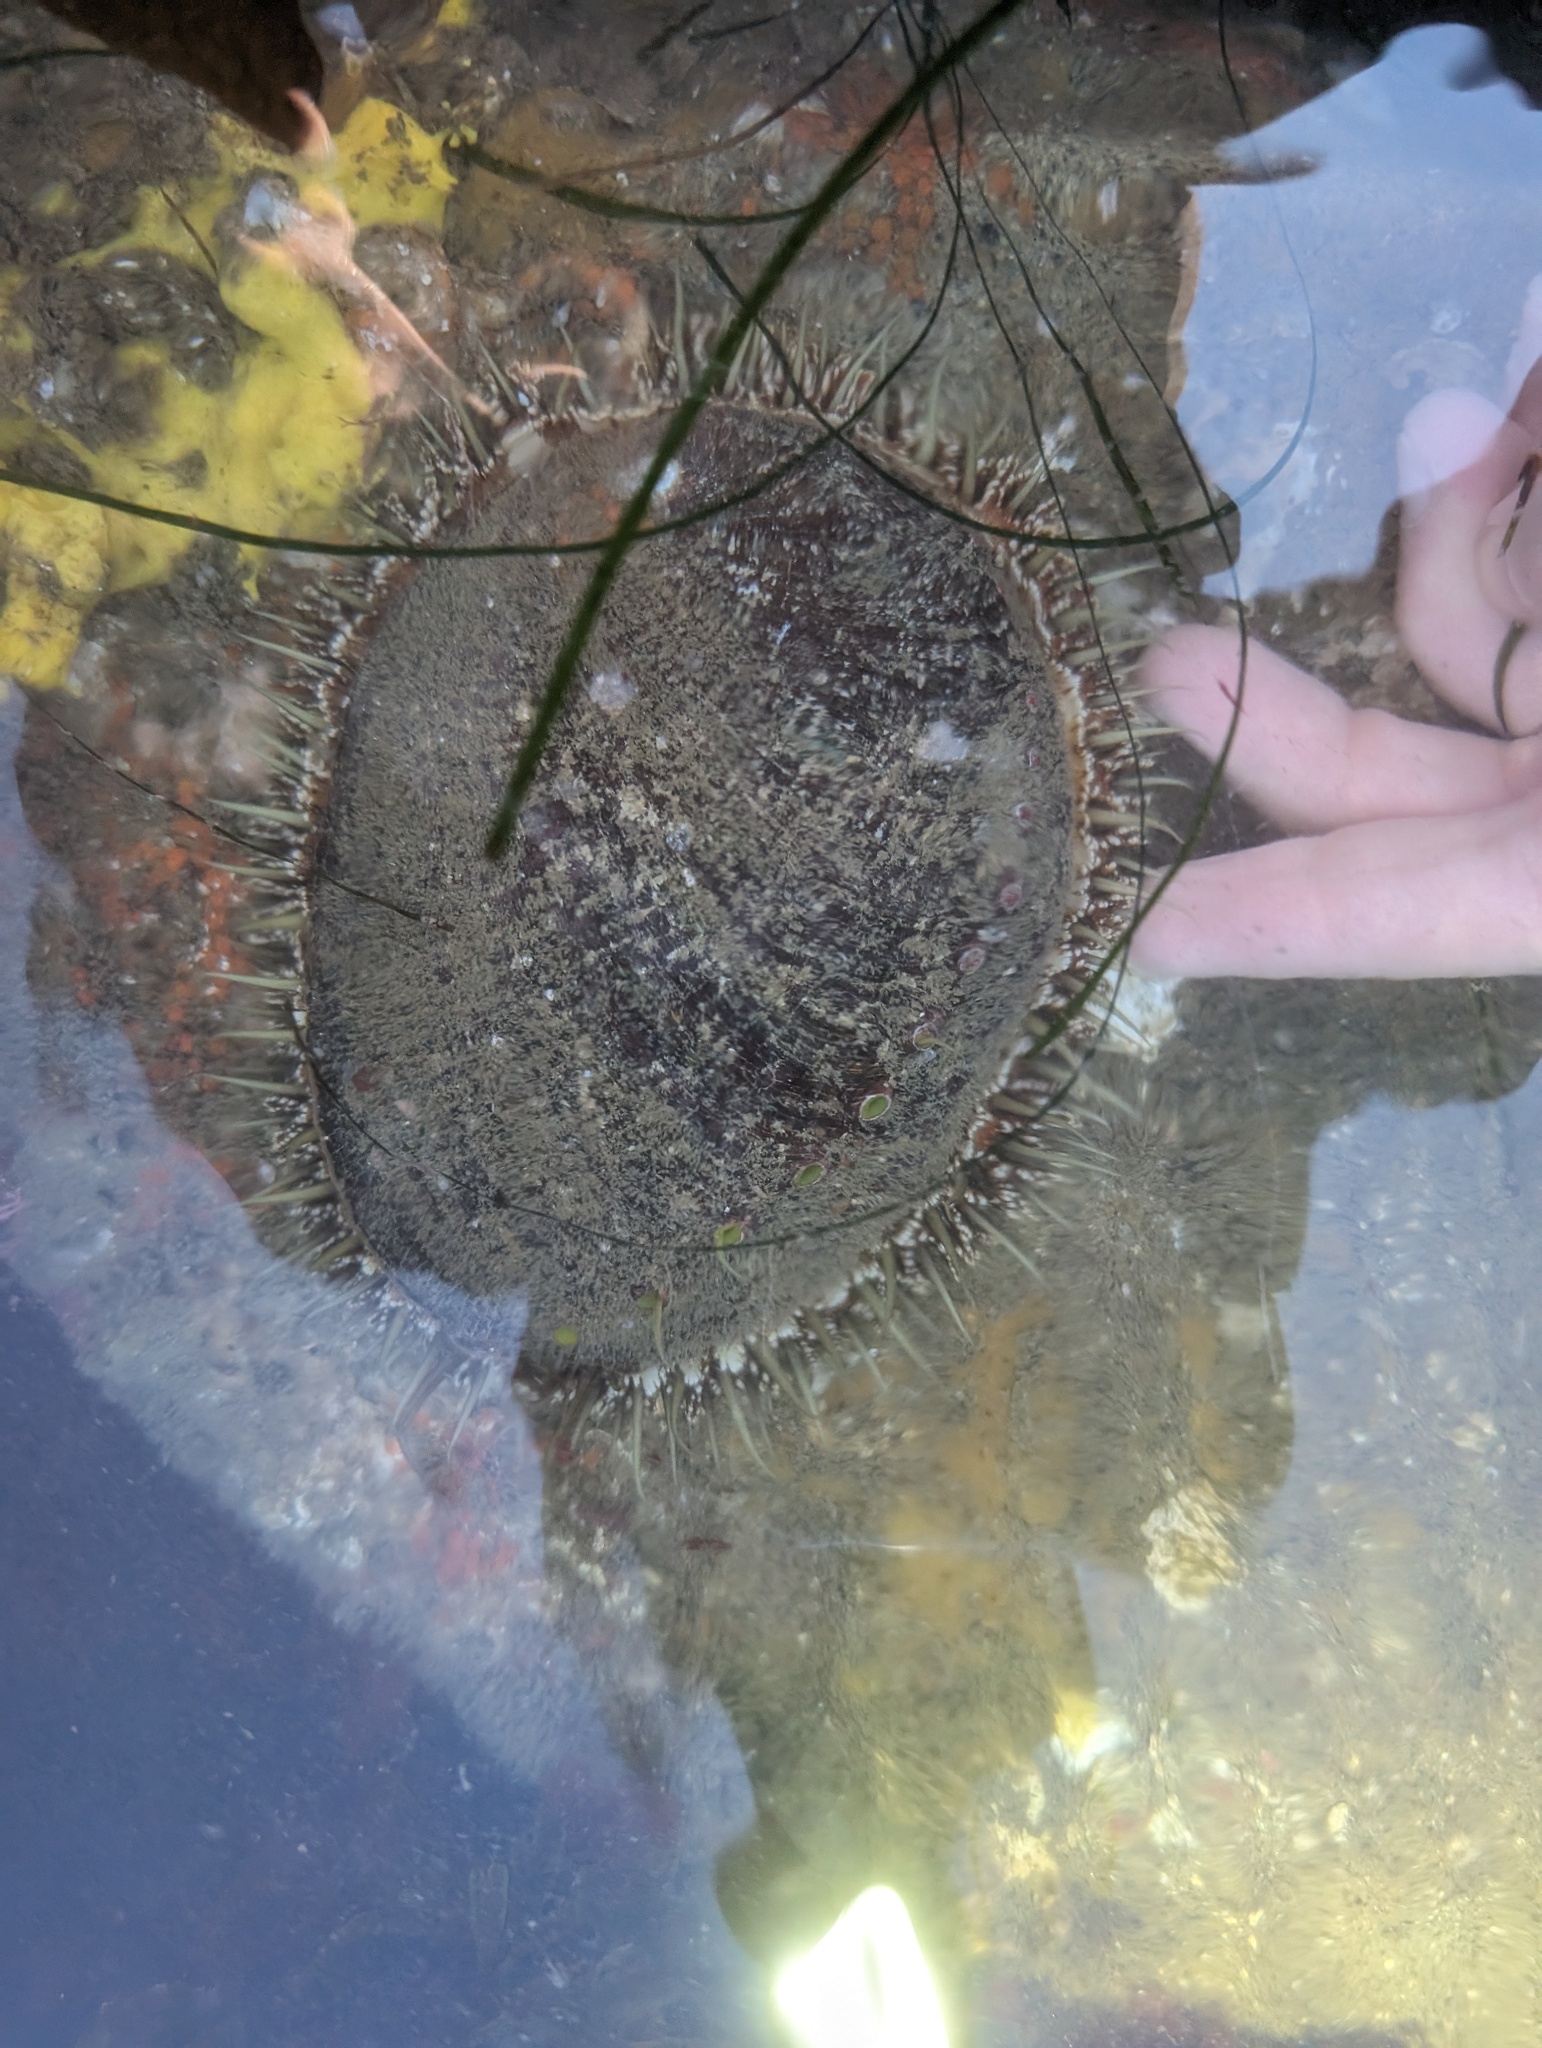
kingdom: Animalia
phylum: Mollusca
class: Gastropoda
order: Lepetellida
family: Haliotidae
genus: Haliotis
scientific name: Haliotis fulgens
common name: Green abalone
